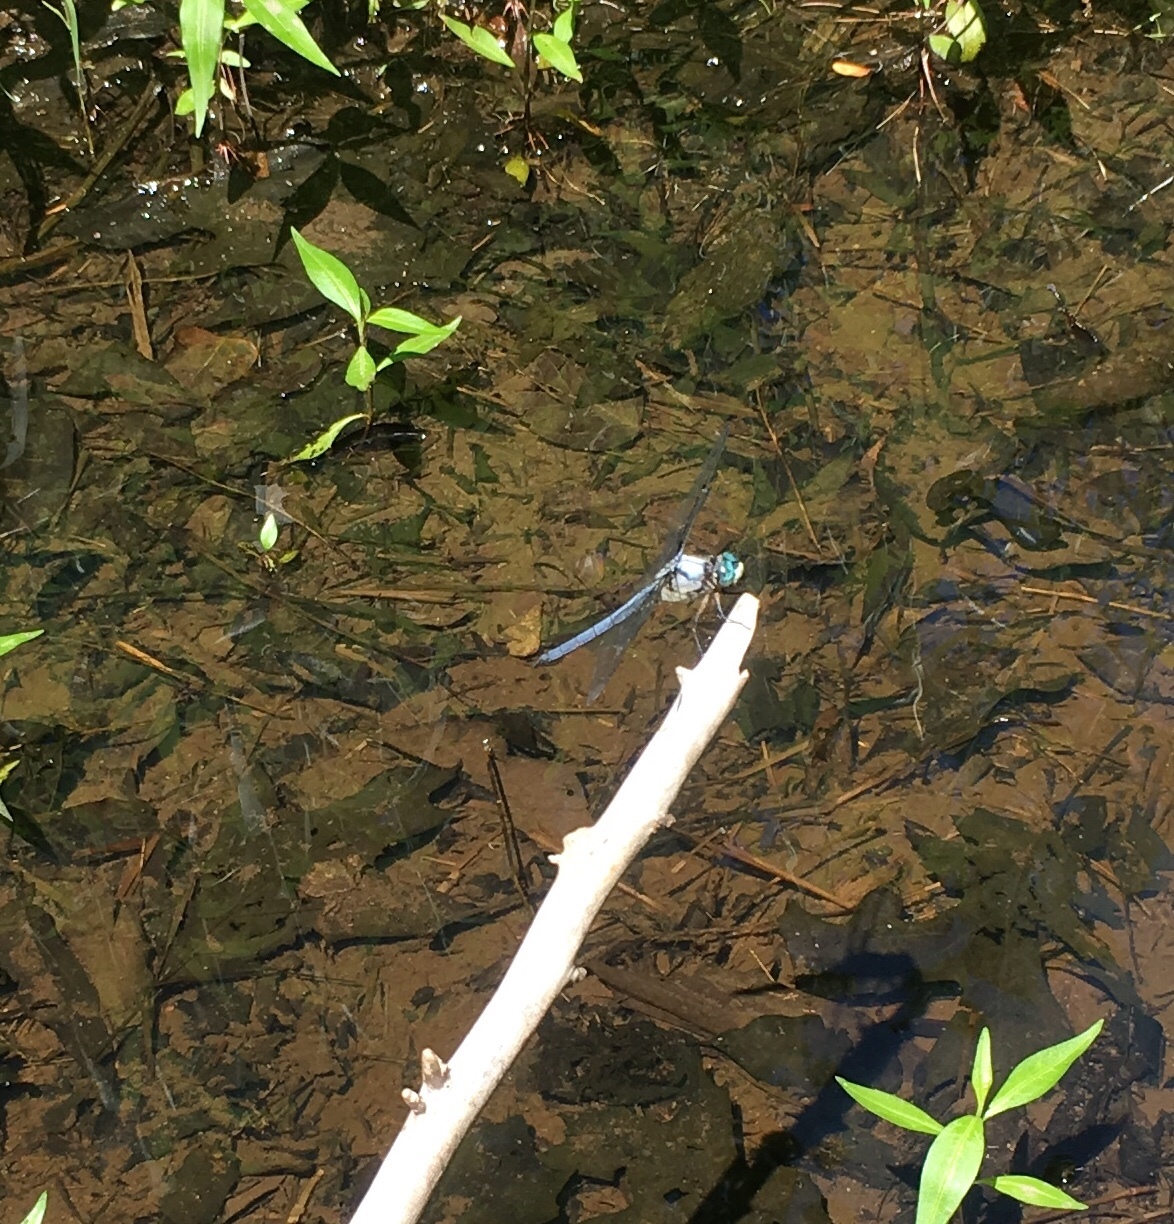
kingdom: Animalia
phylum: Arthropoda
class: Insecta
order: Odonata
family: Libellulidae
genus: Libellula
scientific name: Libellula vibrans
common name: Great blue skimmer
